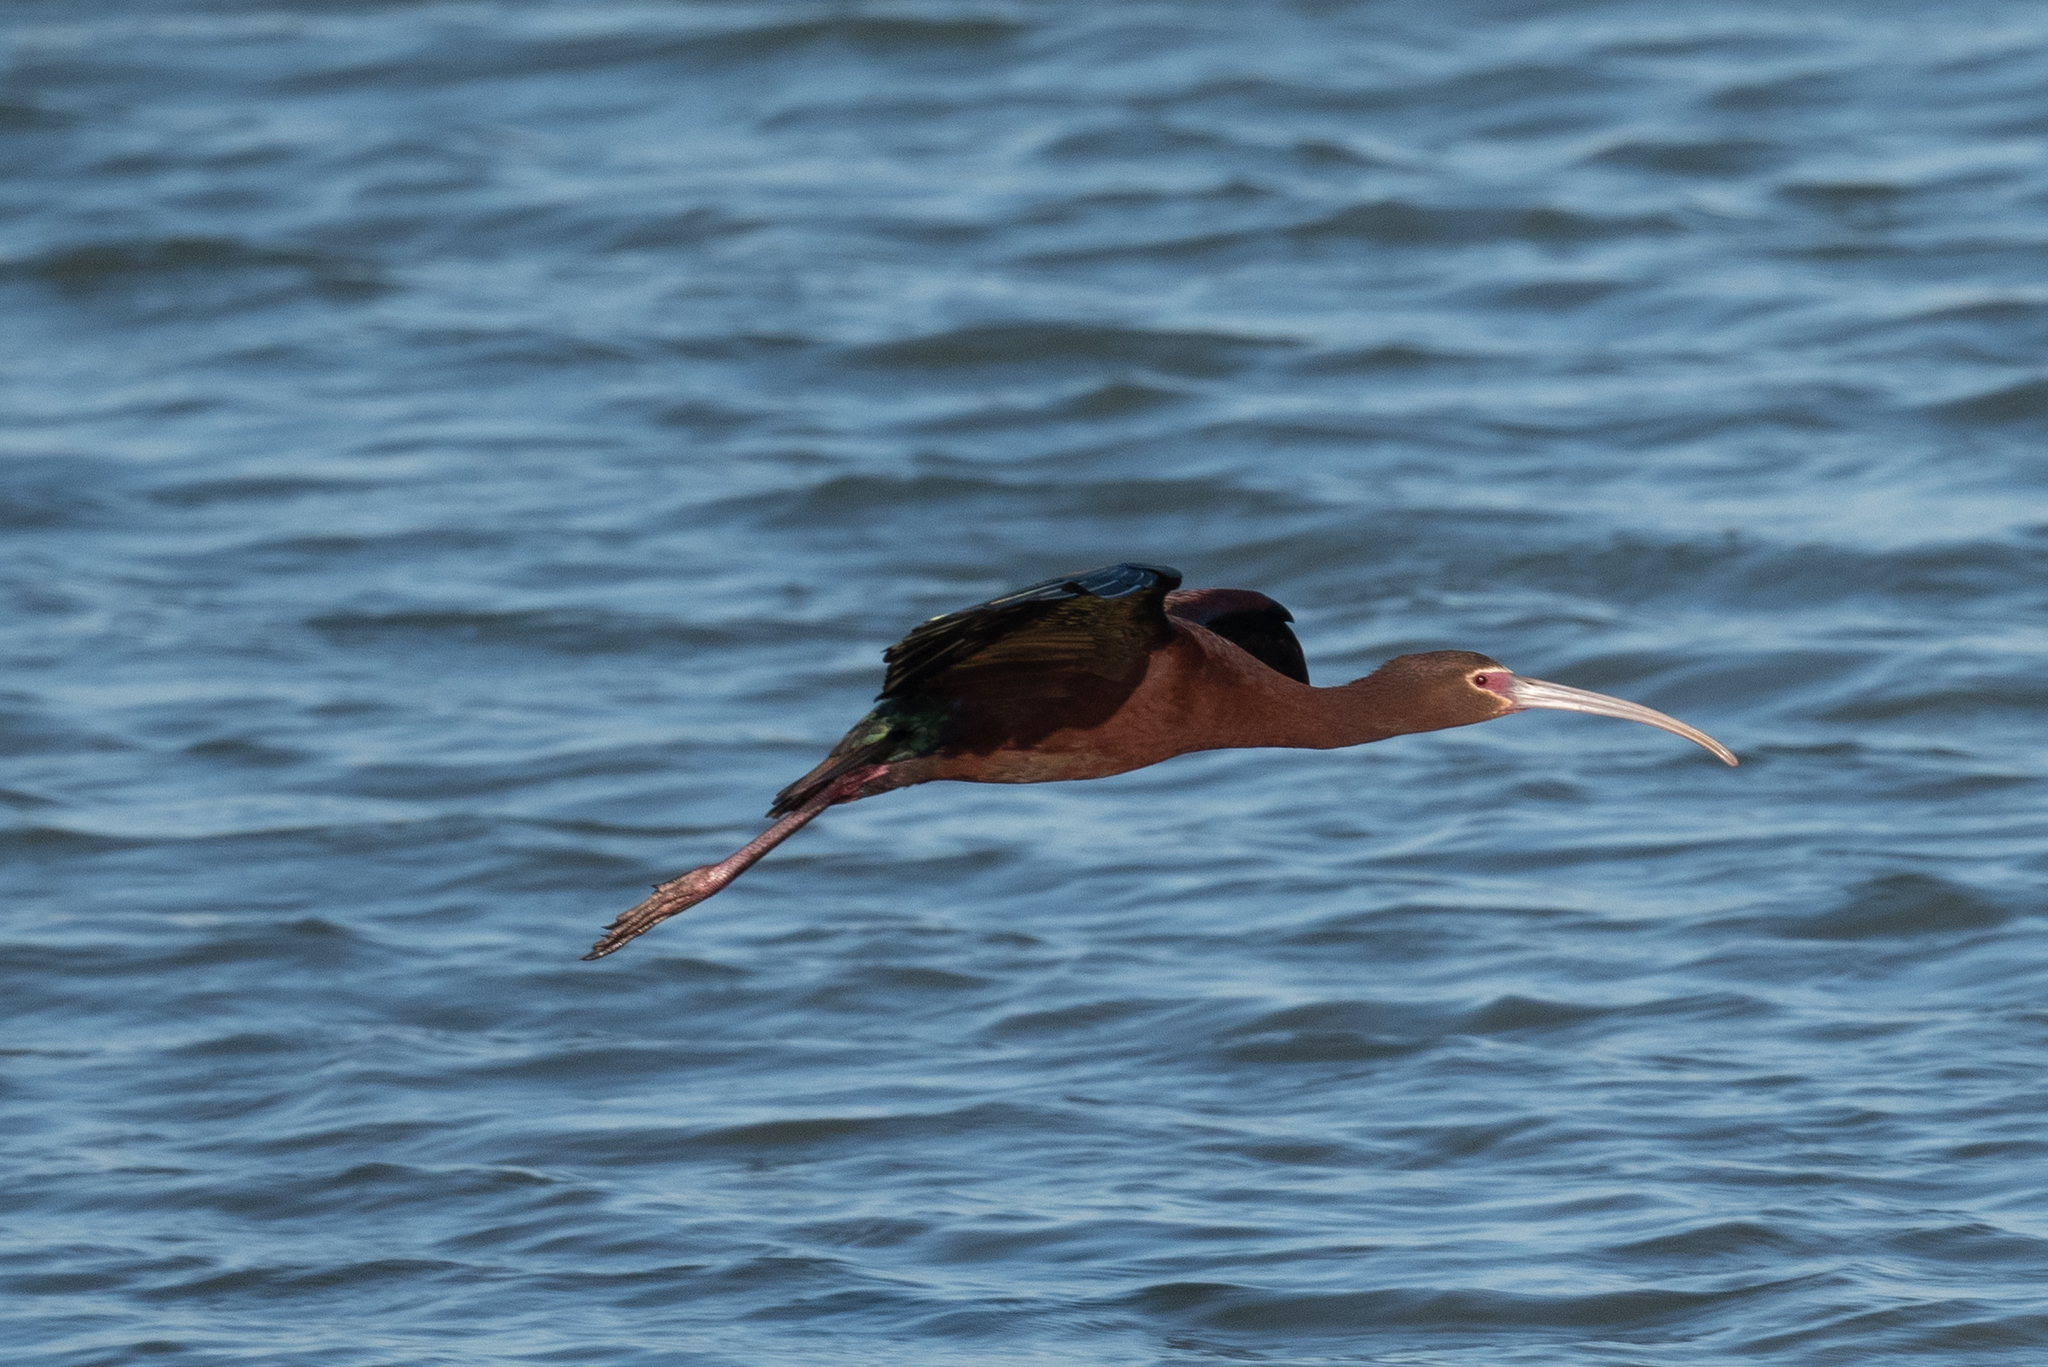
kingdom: Animalia
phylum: Chordata
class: Aves
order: Pelecaniformes
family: Threskiornithidae
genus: Plegadis
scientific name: Plegadis chihi
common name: White-faced ibis
